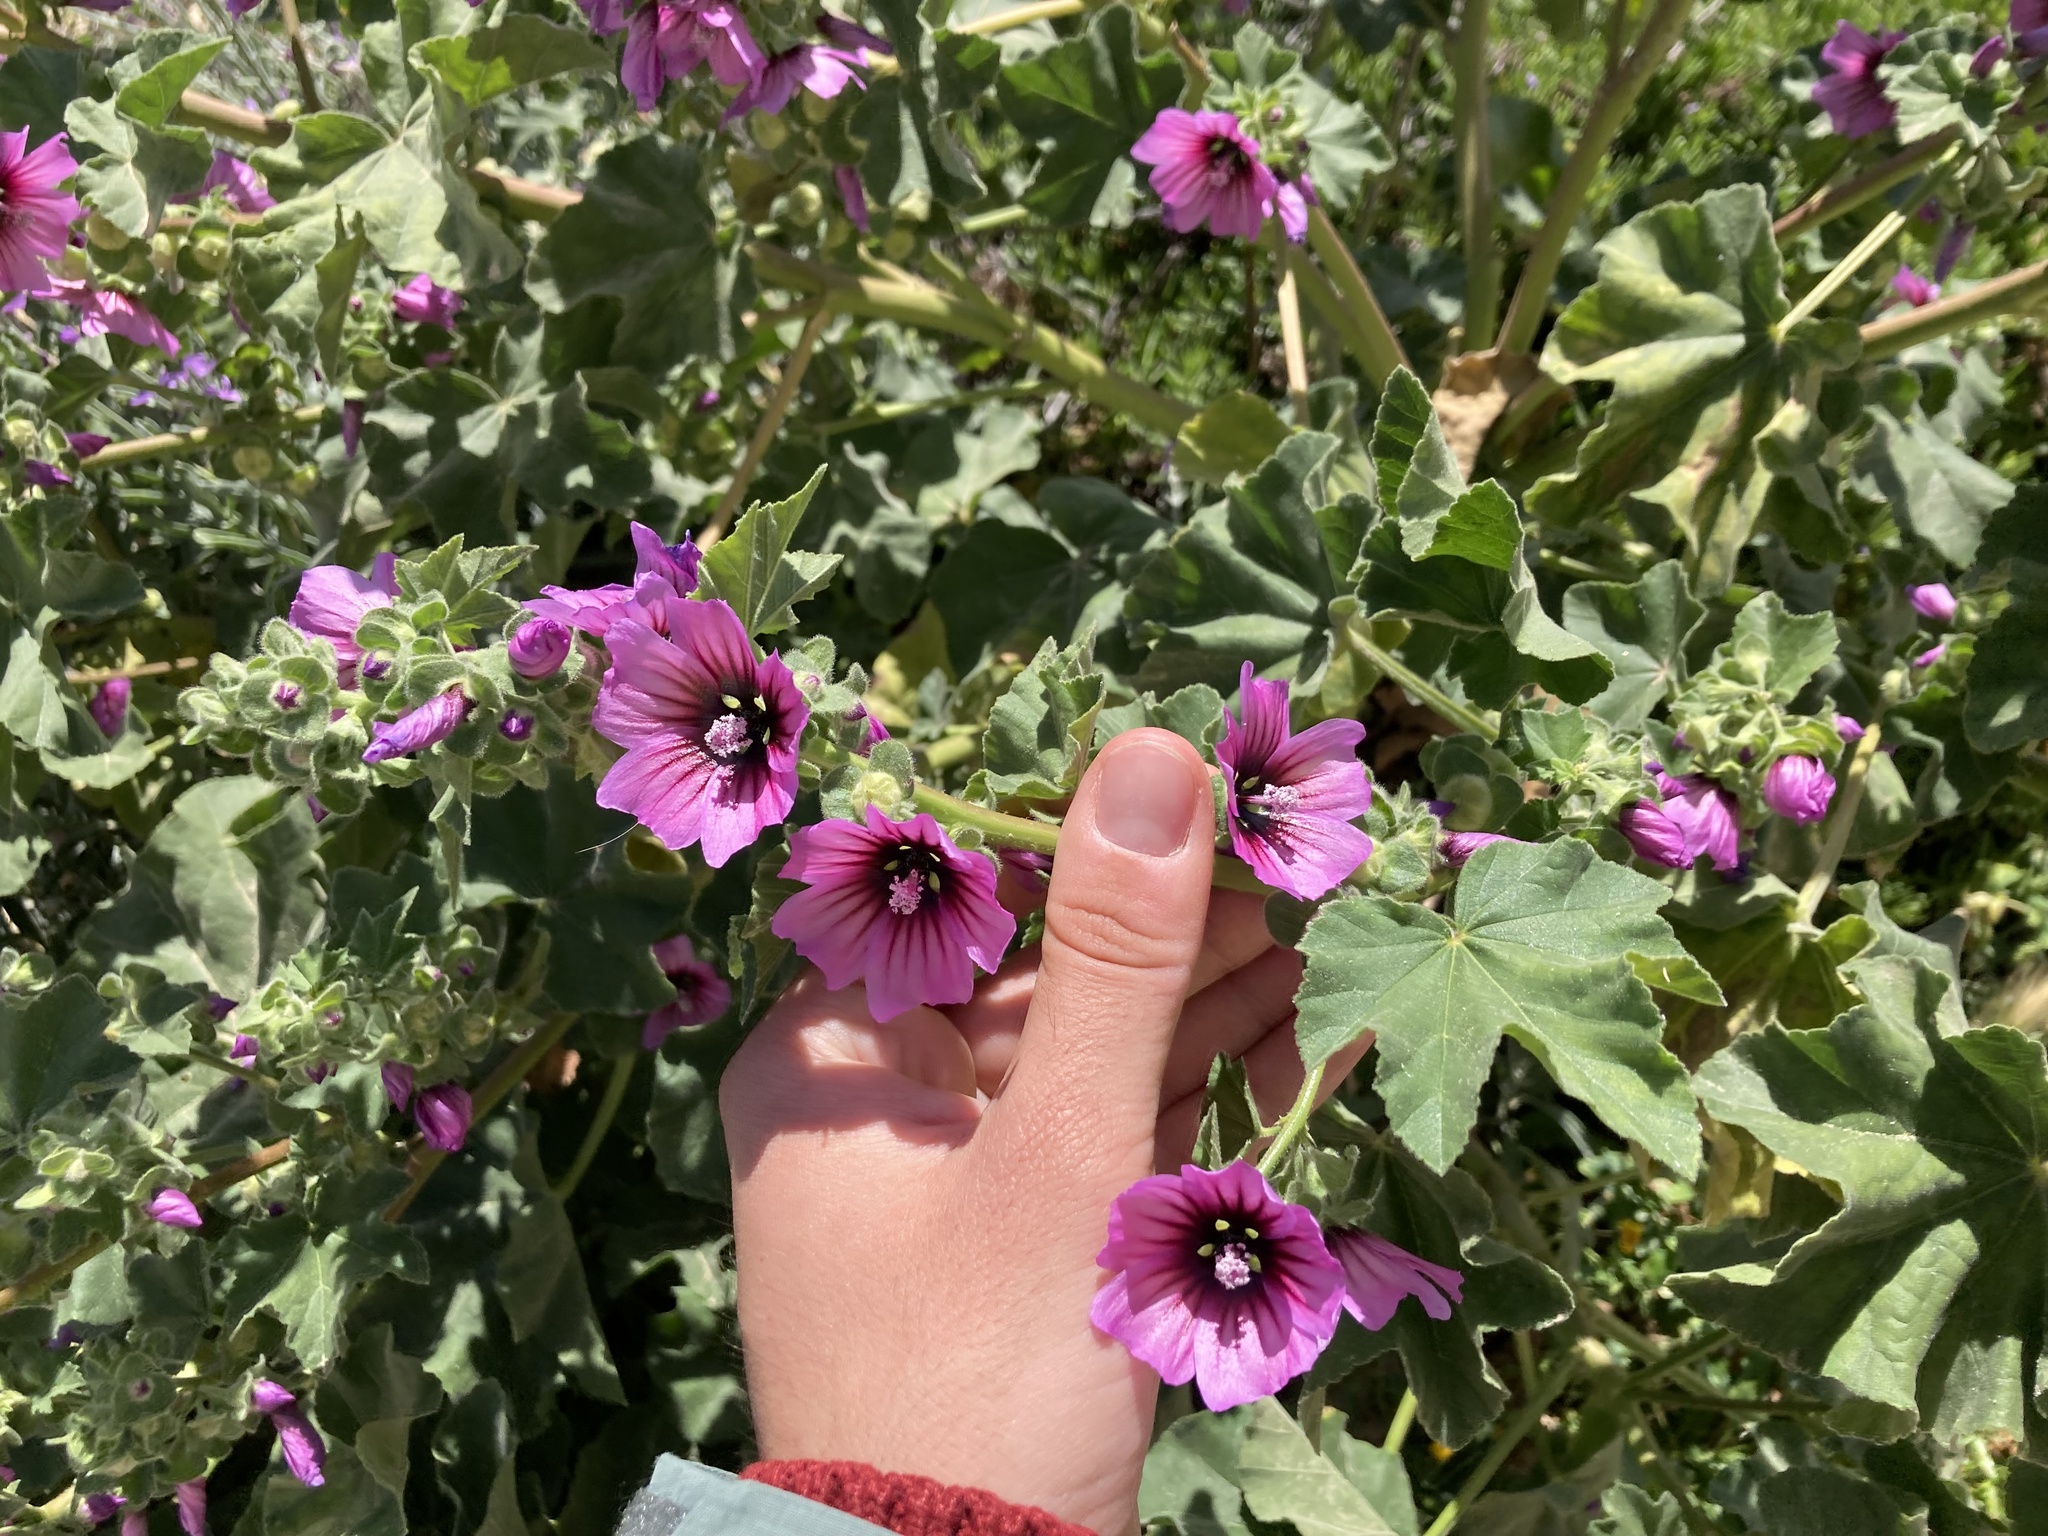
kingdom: Plantae
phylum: Tracheophyta
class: Magnoliopsida
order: Malvales
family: Malvaceae
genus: Malva
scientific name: Malva arborea
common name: Tree mallow
